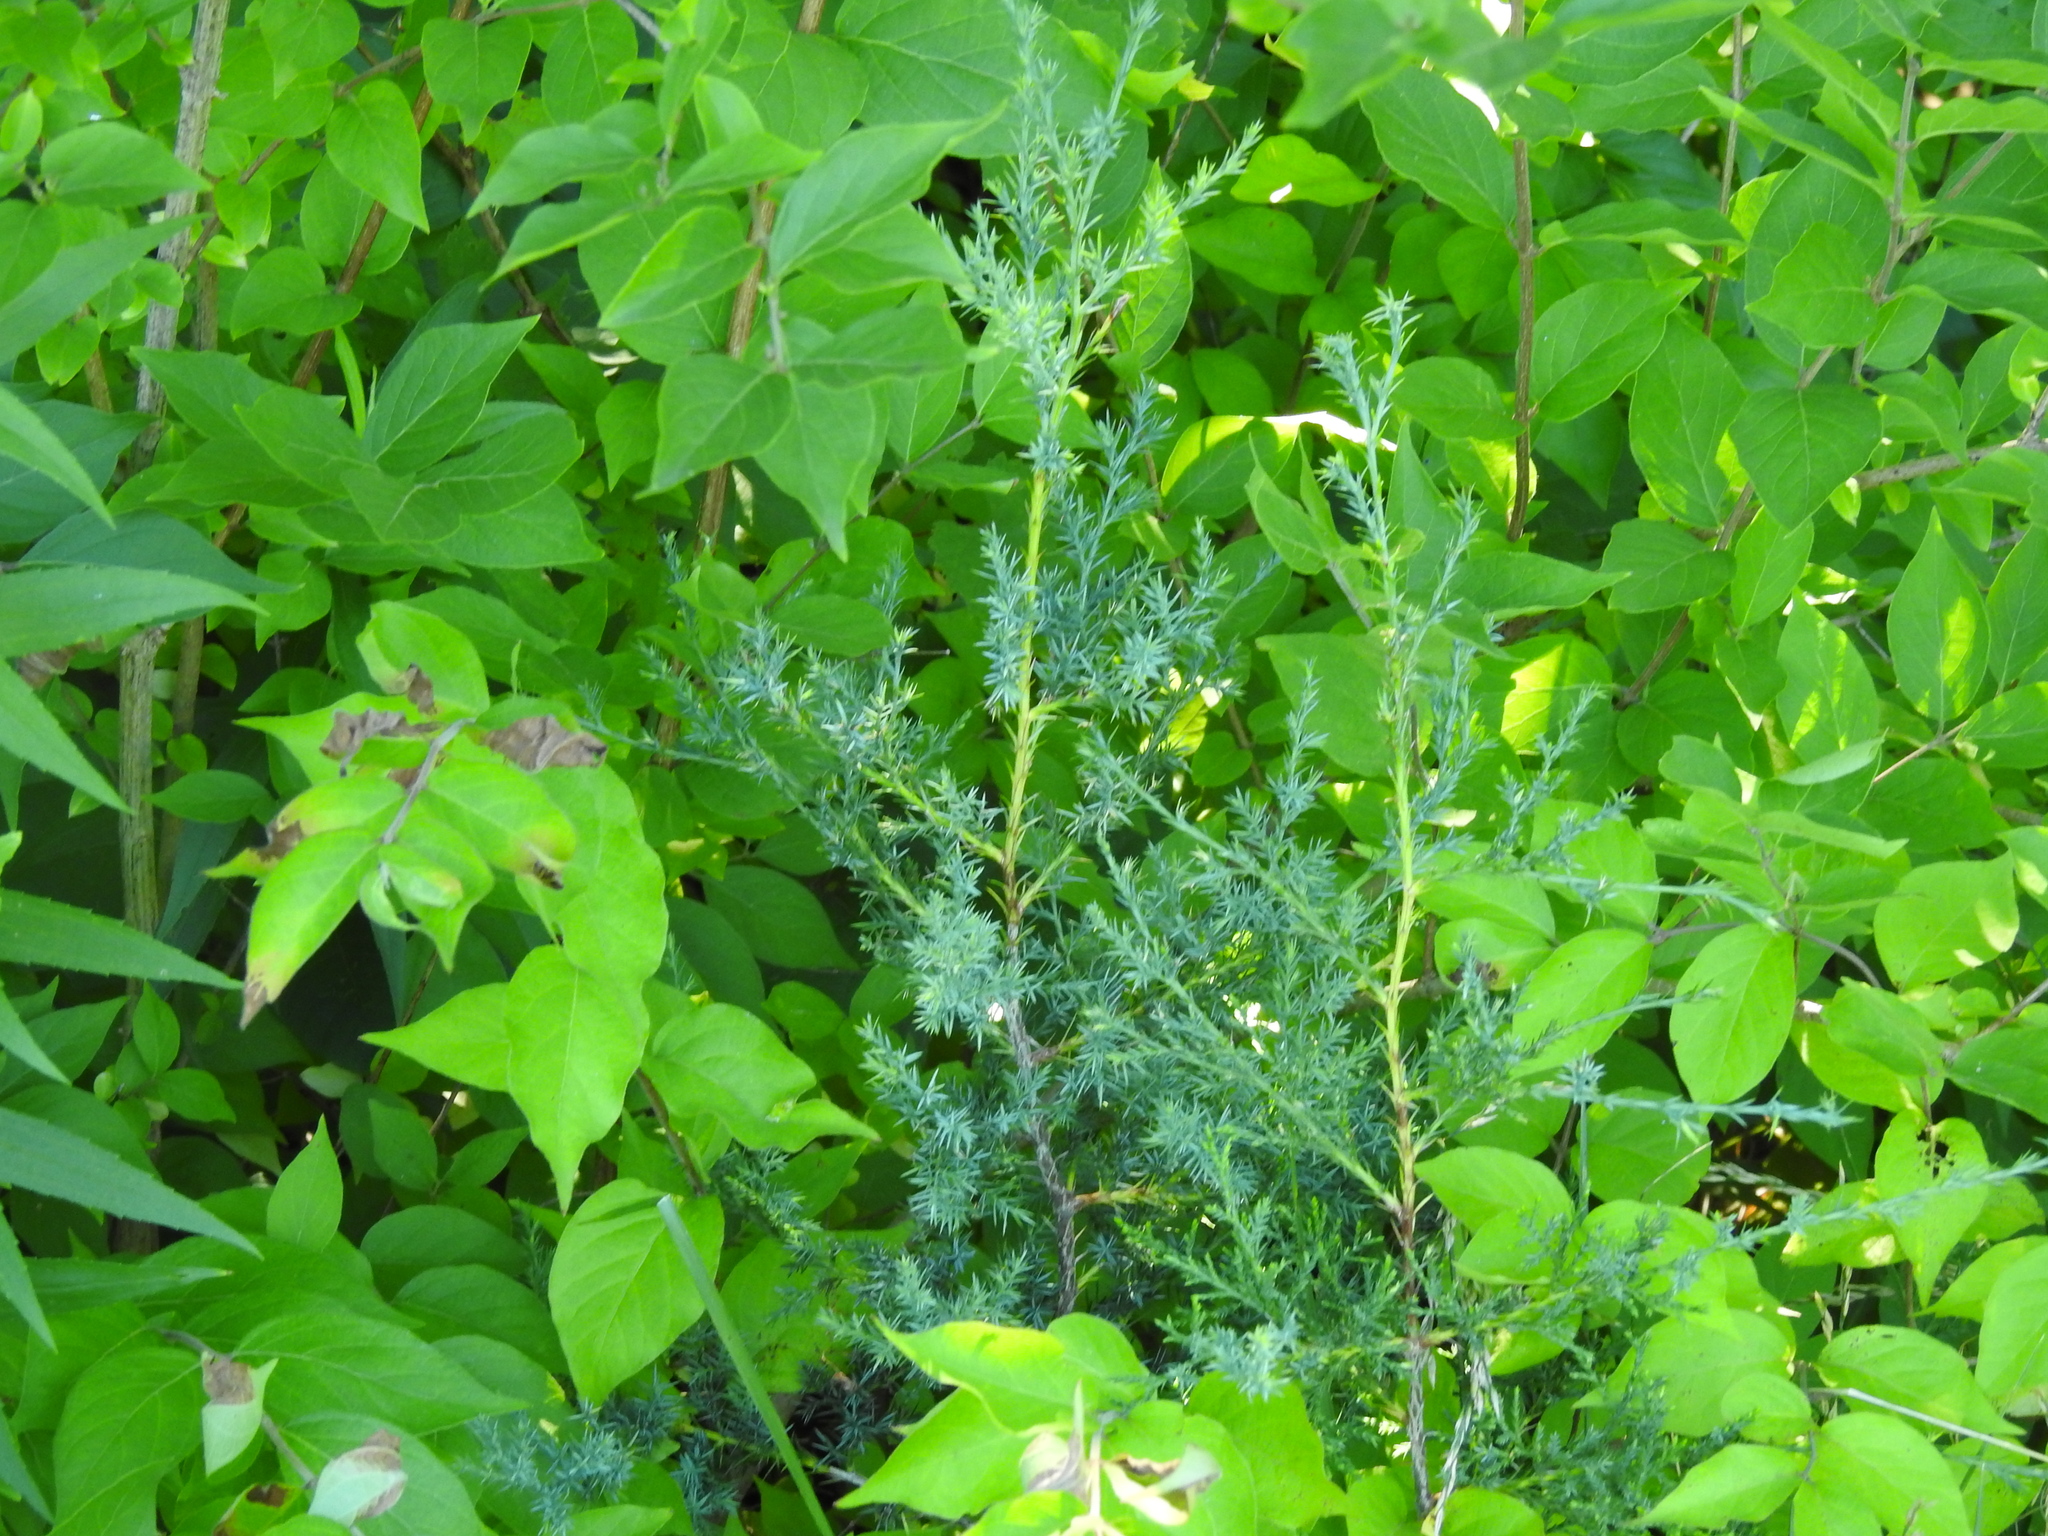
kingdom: Plantae
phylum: Tracheophyta
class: Pinopsida
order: Pinales
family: Cupressaceae
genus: Juniperus
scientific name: Juniperus virginiana
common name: Red juniper
